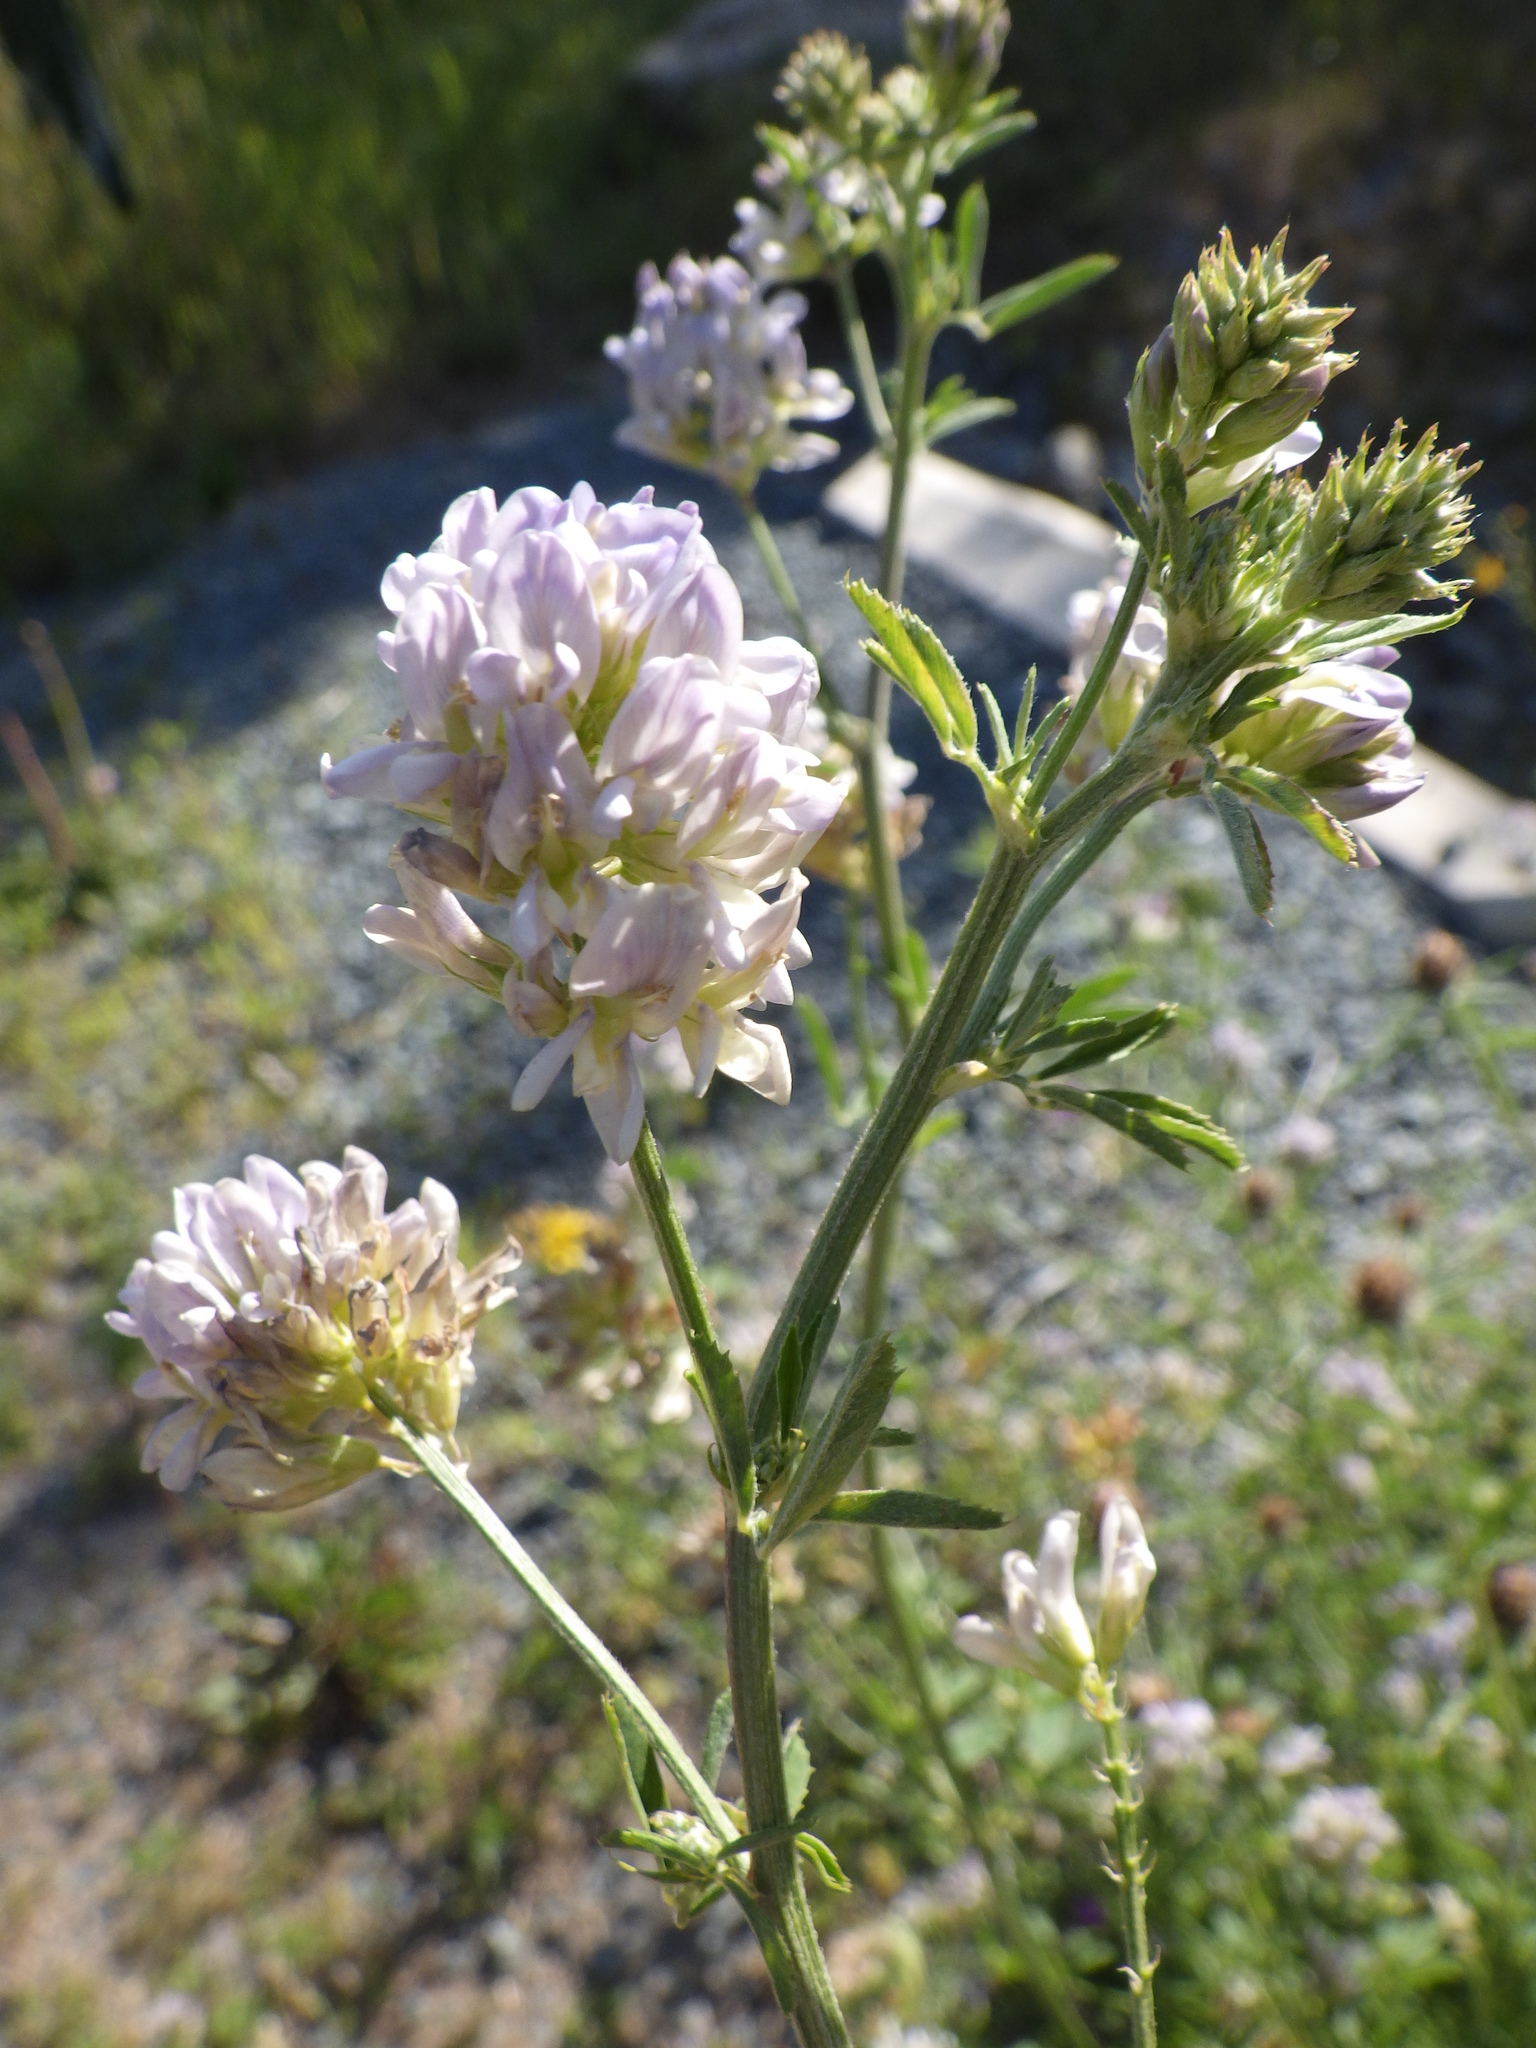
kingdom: Plantae
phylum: Tracheophyta
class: Magnoliopsida
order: Fabales
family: Fabaceae
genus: Medicago
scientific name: Medicago sativa
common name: Alfalfa
